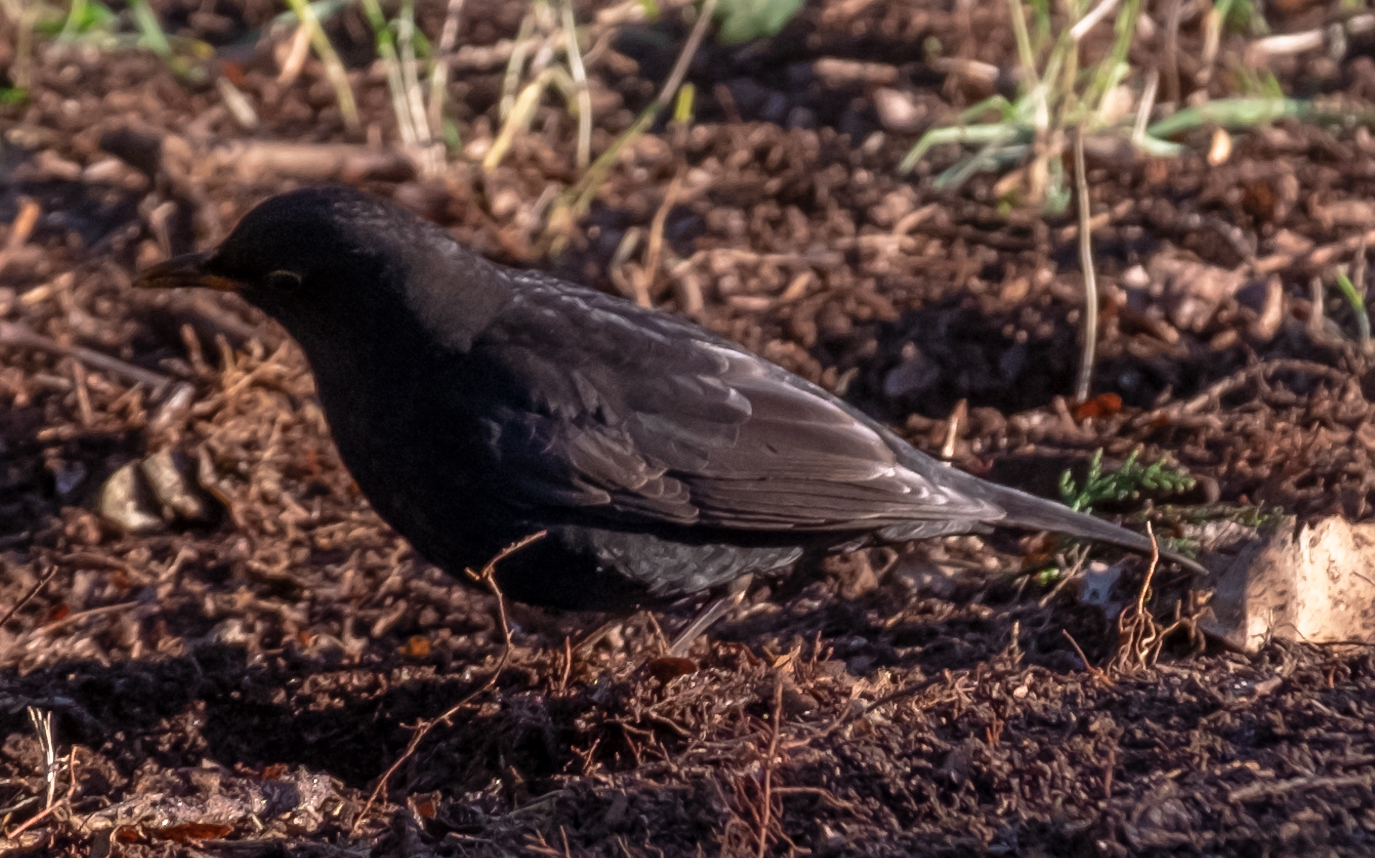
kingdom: Animalia
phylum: Chordata
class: Aves
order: Passeriformes
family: Turdidae
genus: Turdus
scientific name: Turdus merula
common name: Common blackbird
